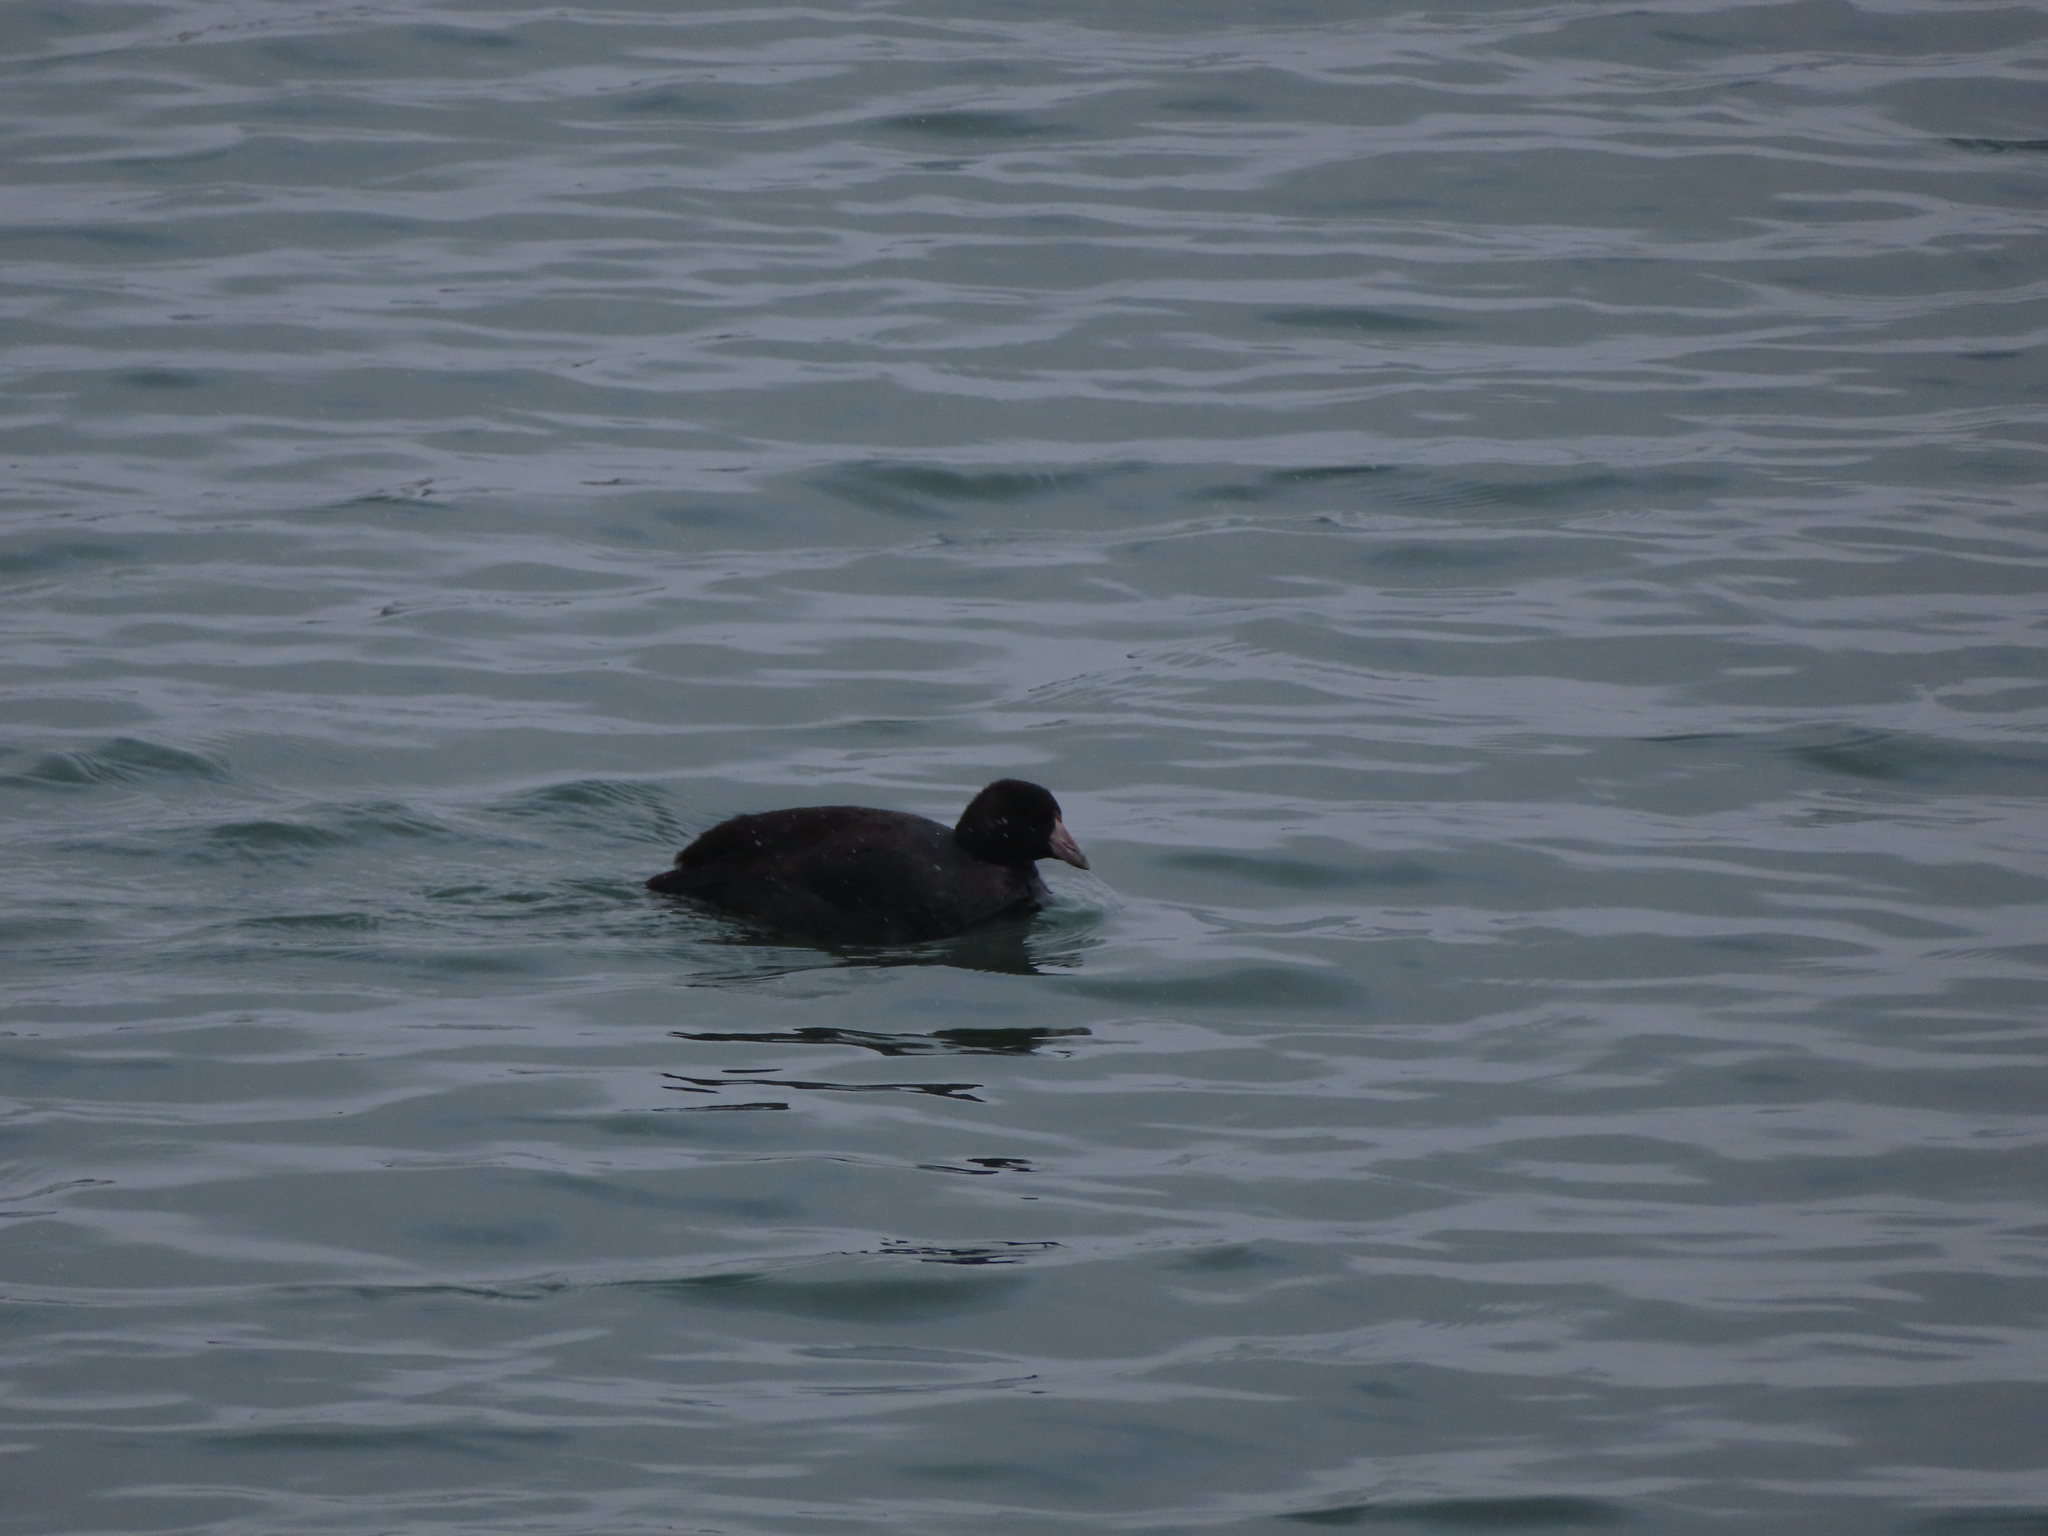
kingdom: Animalia
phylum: Chordata
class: Aves
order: Gruiformes
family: Rallidae
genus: Fulica
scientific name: Fulica americana
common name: American coot
